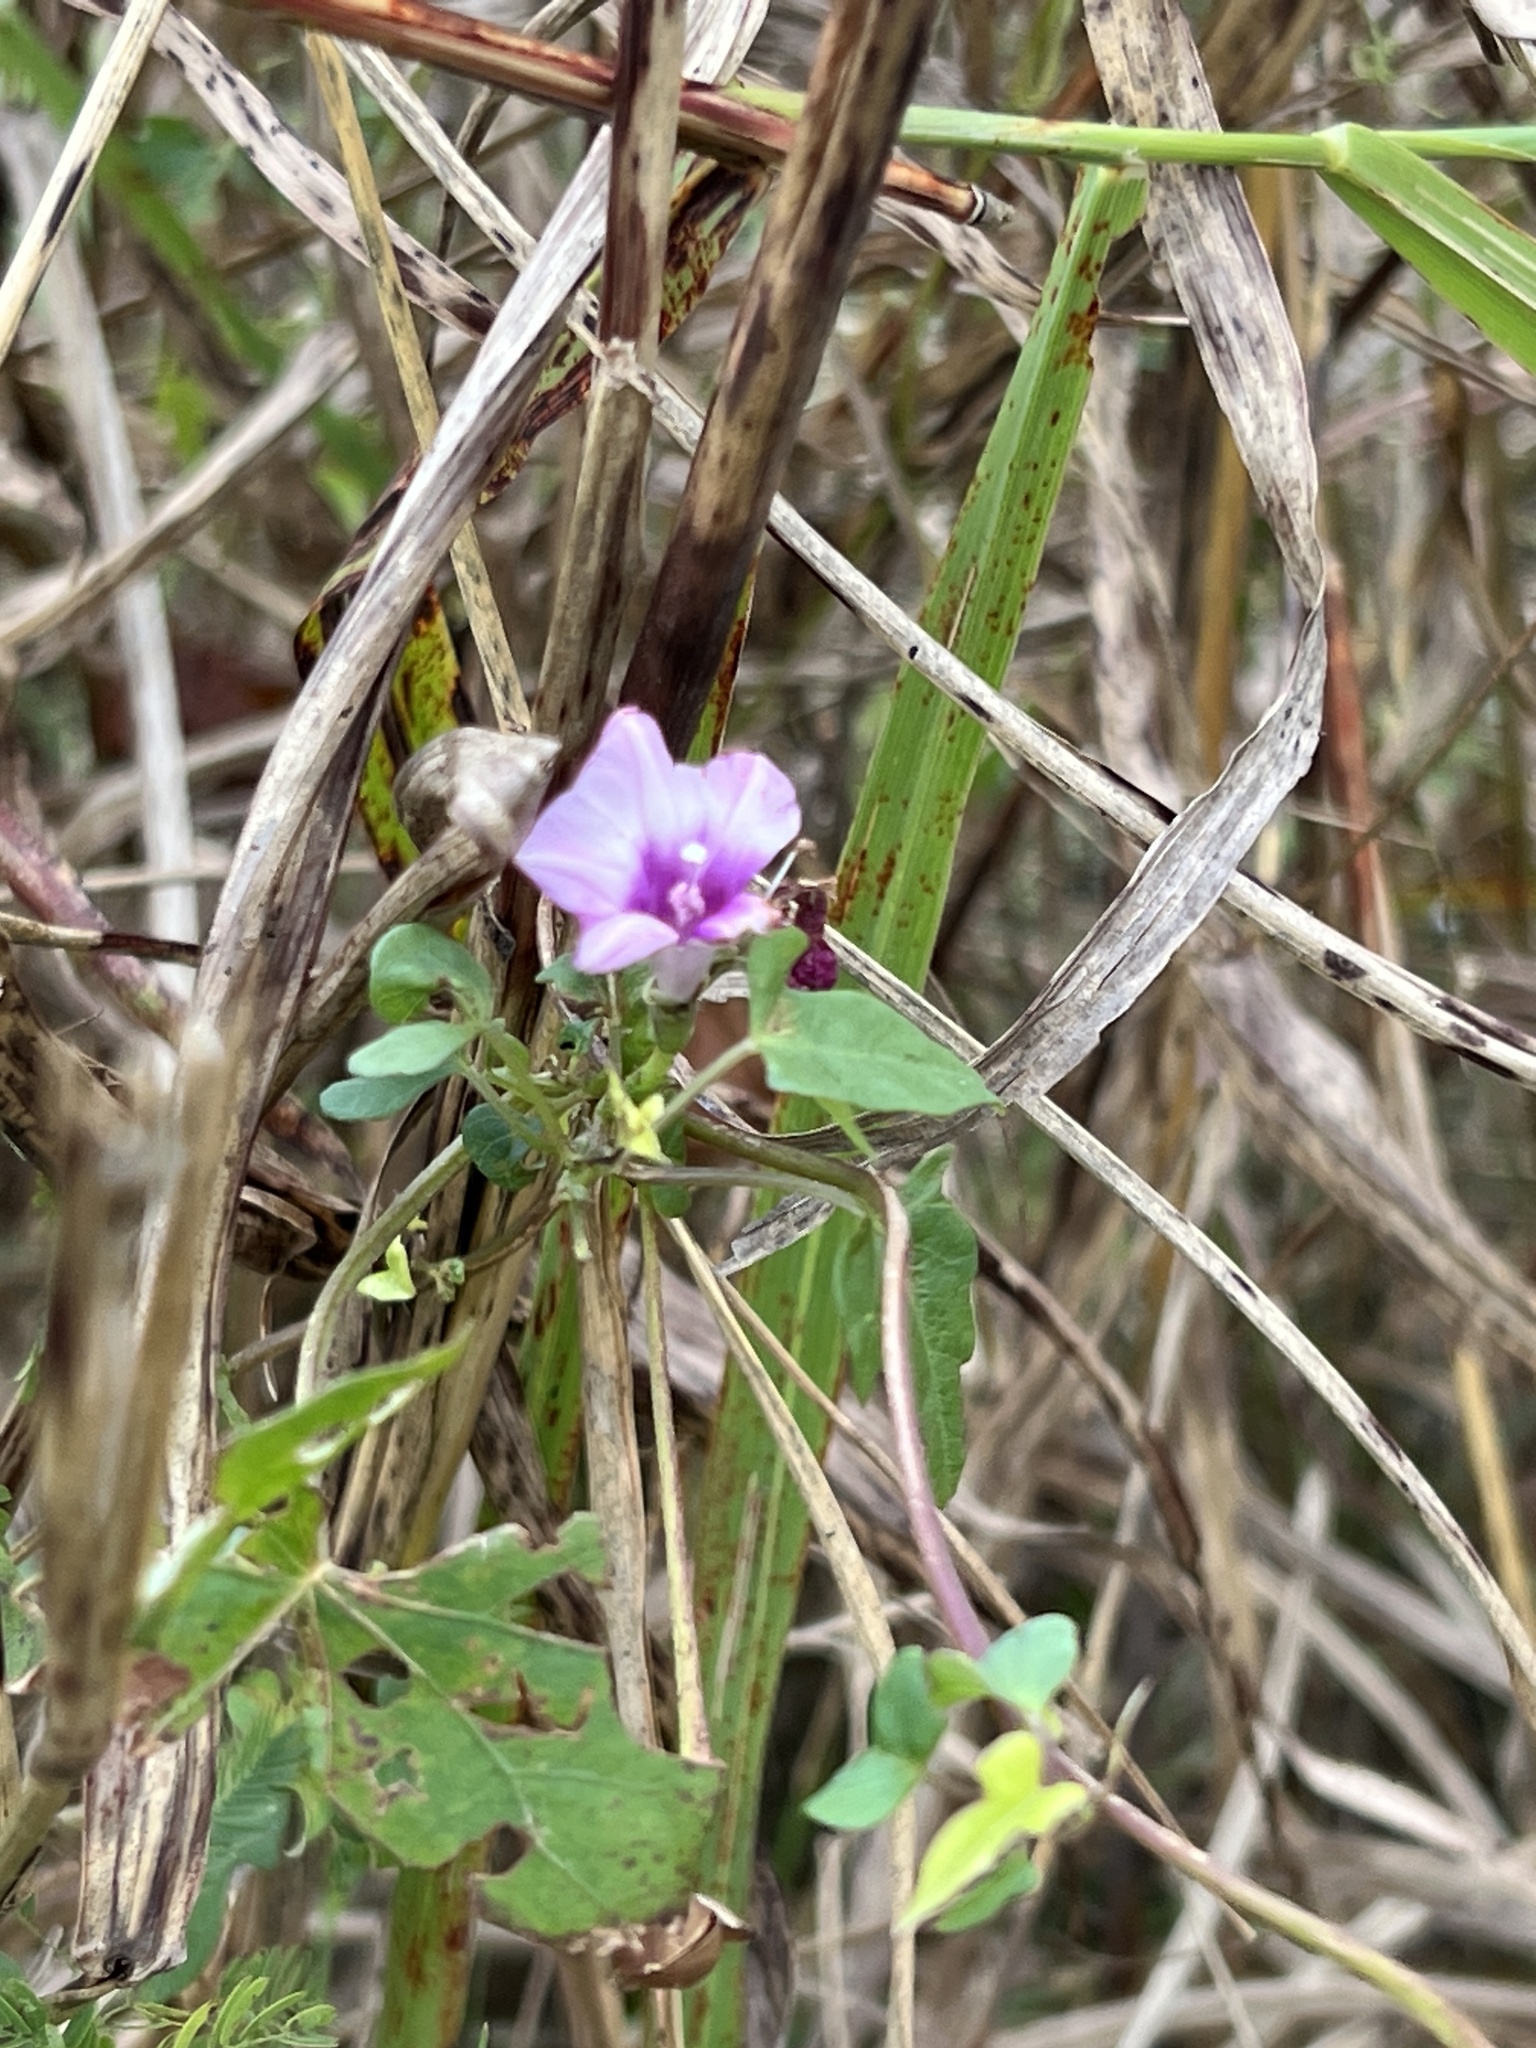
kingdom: Plantae
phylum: Tracheophyta
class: Magnoliopsida
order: Solanales
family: Convolvulaceae
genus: Ipomoea
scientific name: Ipomoea triloba
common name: Little-bell
